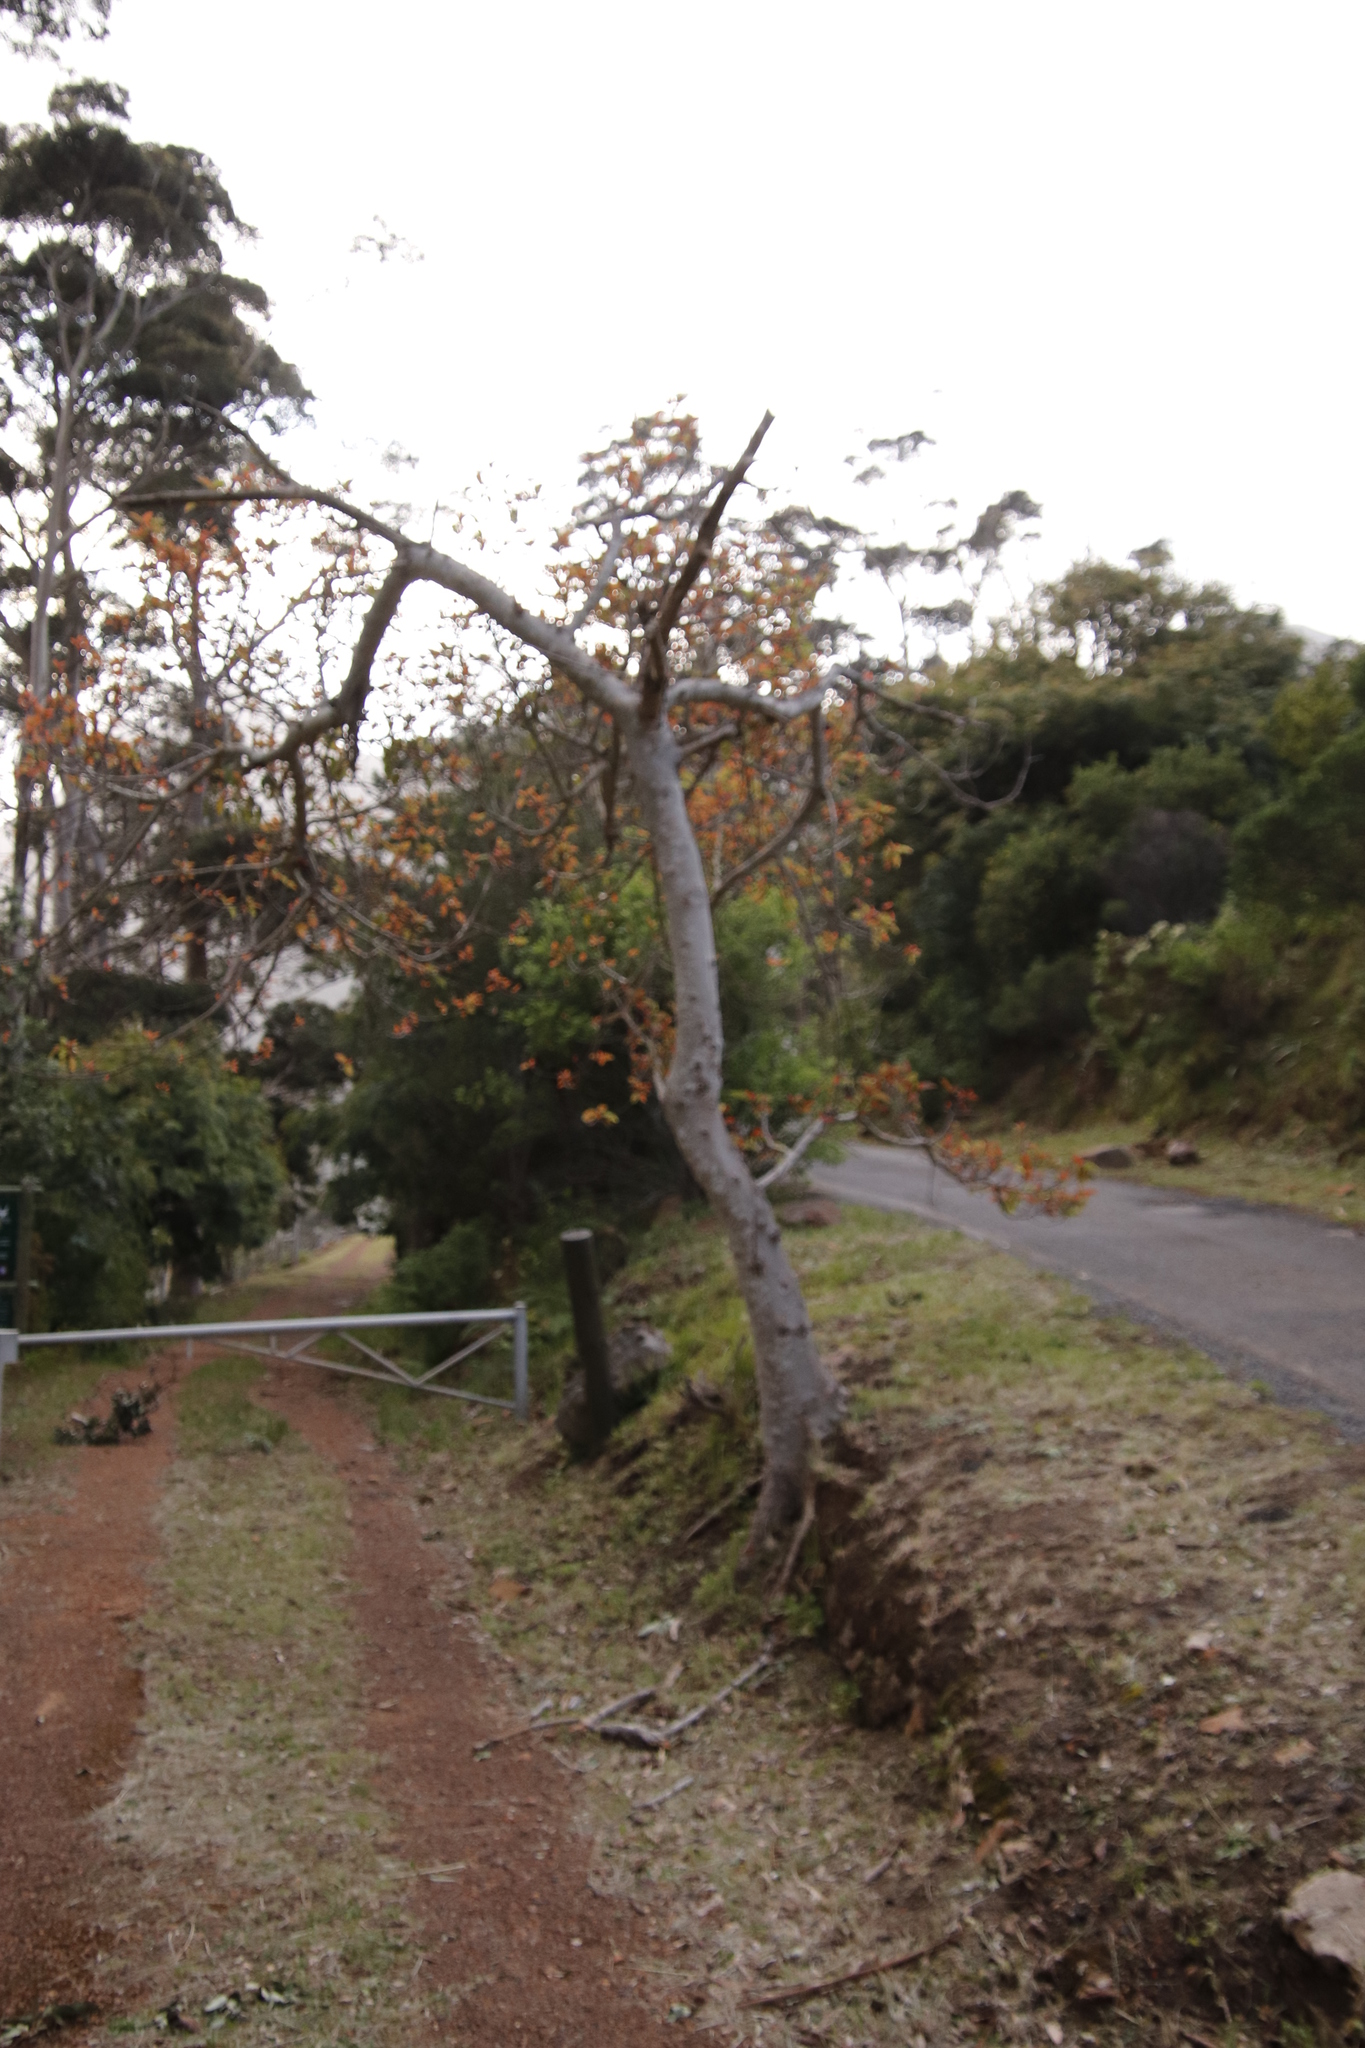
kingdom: Plantae
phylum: Tracheophyta
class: Magnoliopsida
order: Rosales
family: Moraceae
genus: Ficus
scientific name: Ficus sur
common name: Cape fig
